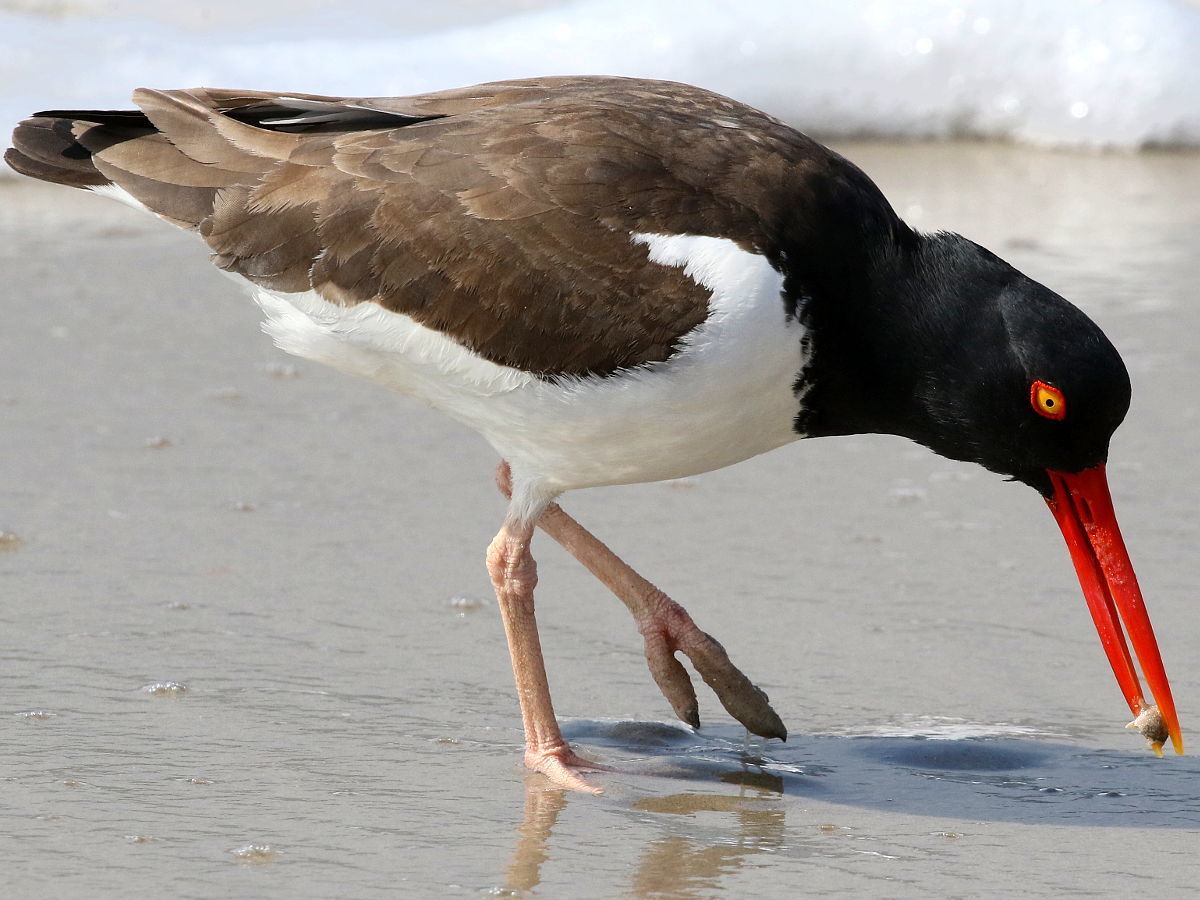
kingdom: Animalia
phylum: Chordata
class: Aves
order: Charadriiformes
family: Haematopodidae
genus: Haematopus
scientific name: Haematopus palliatus
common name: American oystercatcher
